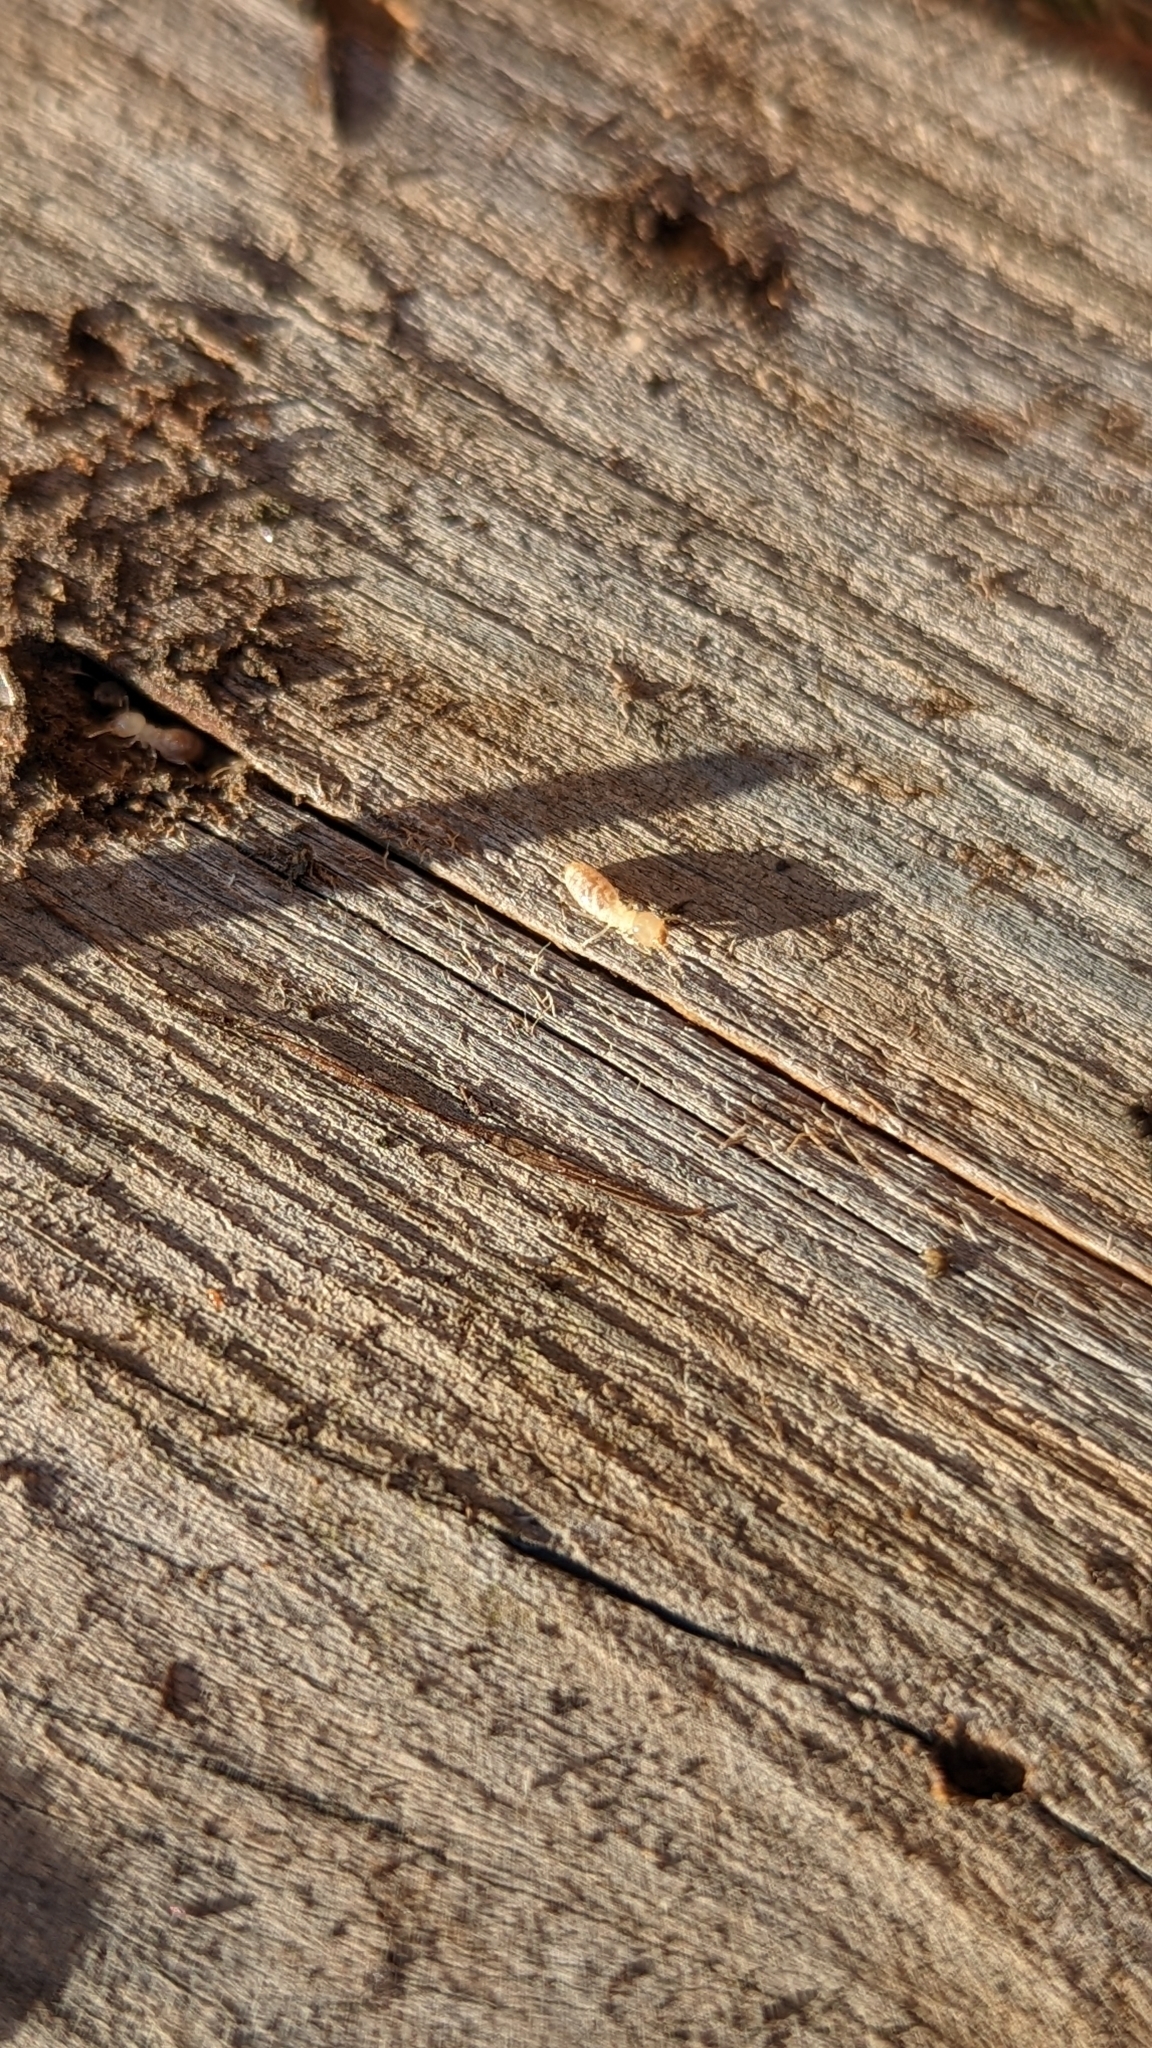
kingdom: Animalia
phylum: Arthropoda
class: Insecta
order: Blattodea
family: Rhinotermitidae
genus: Reticulitermes
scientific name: Reticulitermes flavipes
